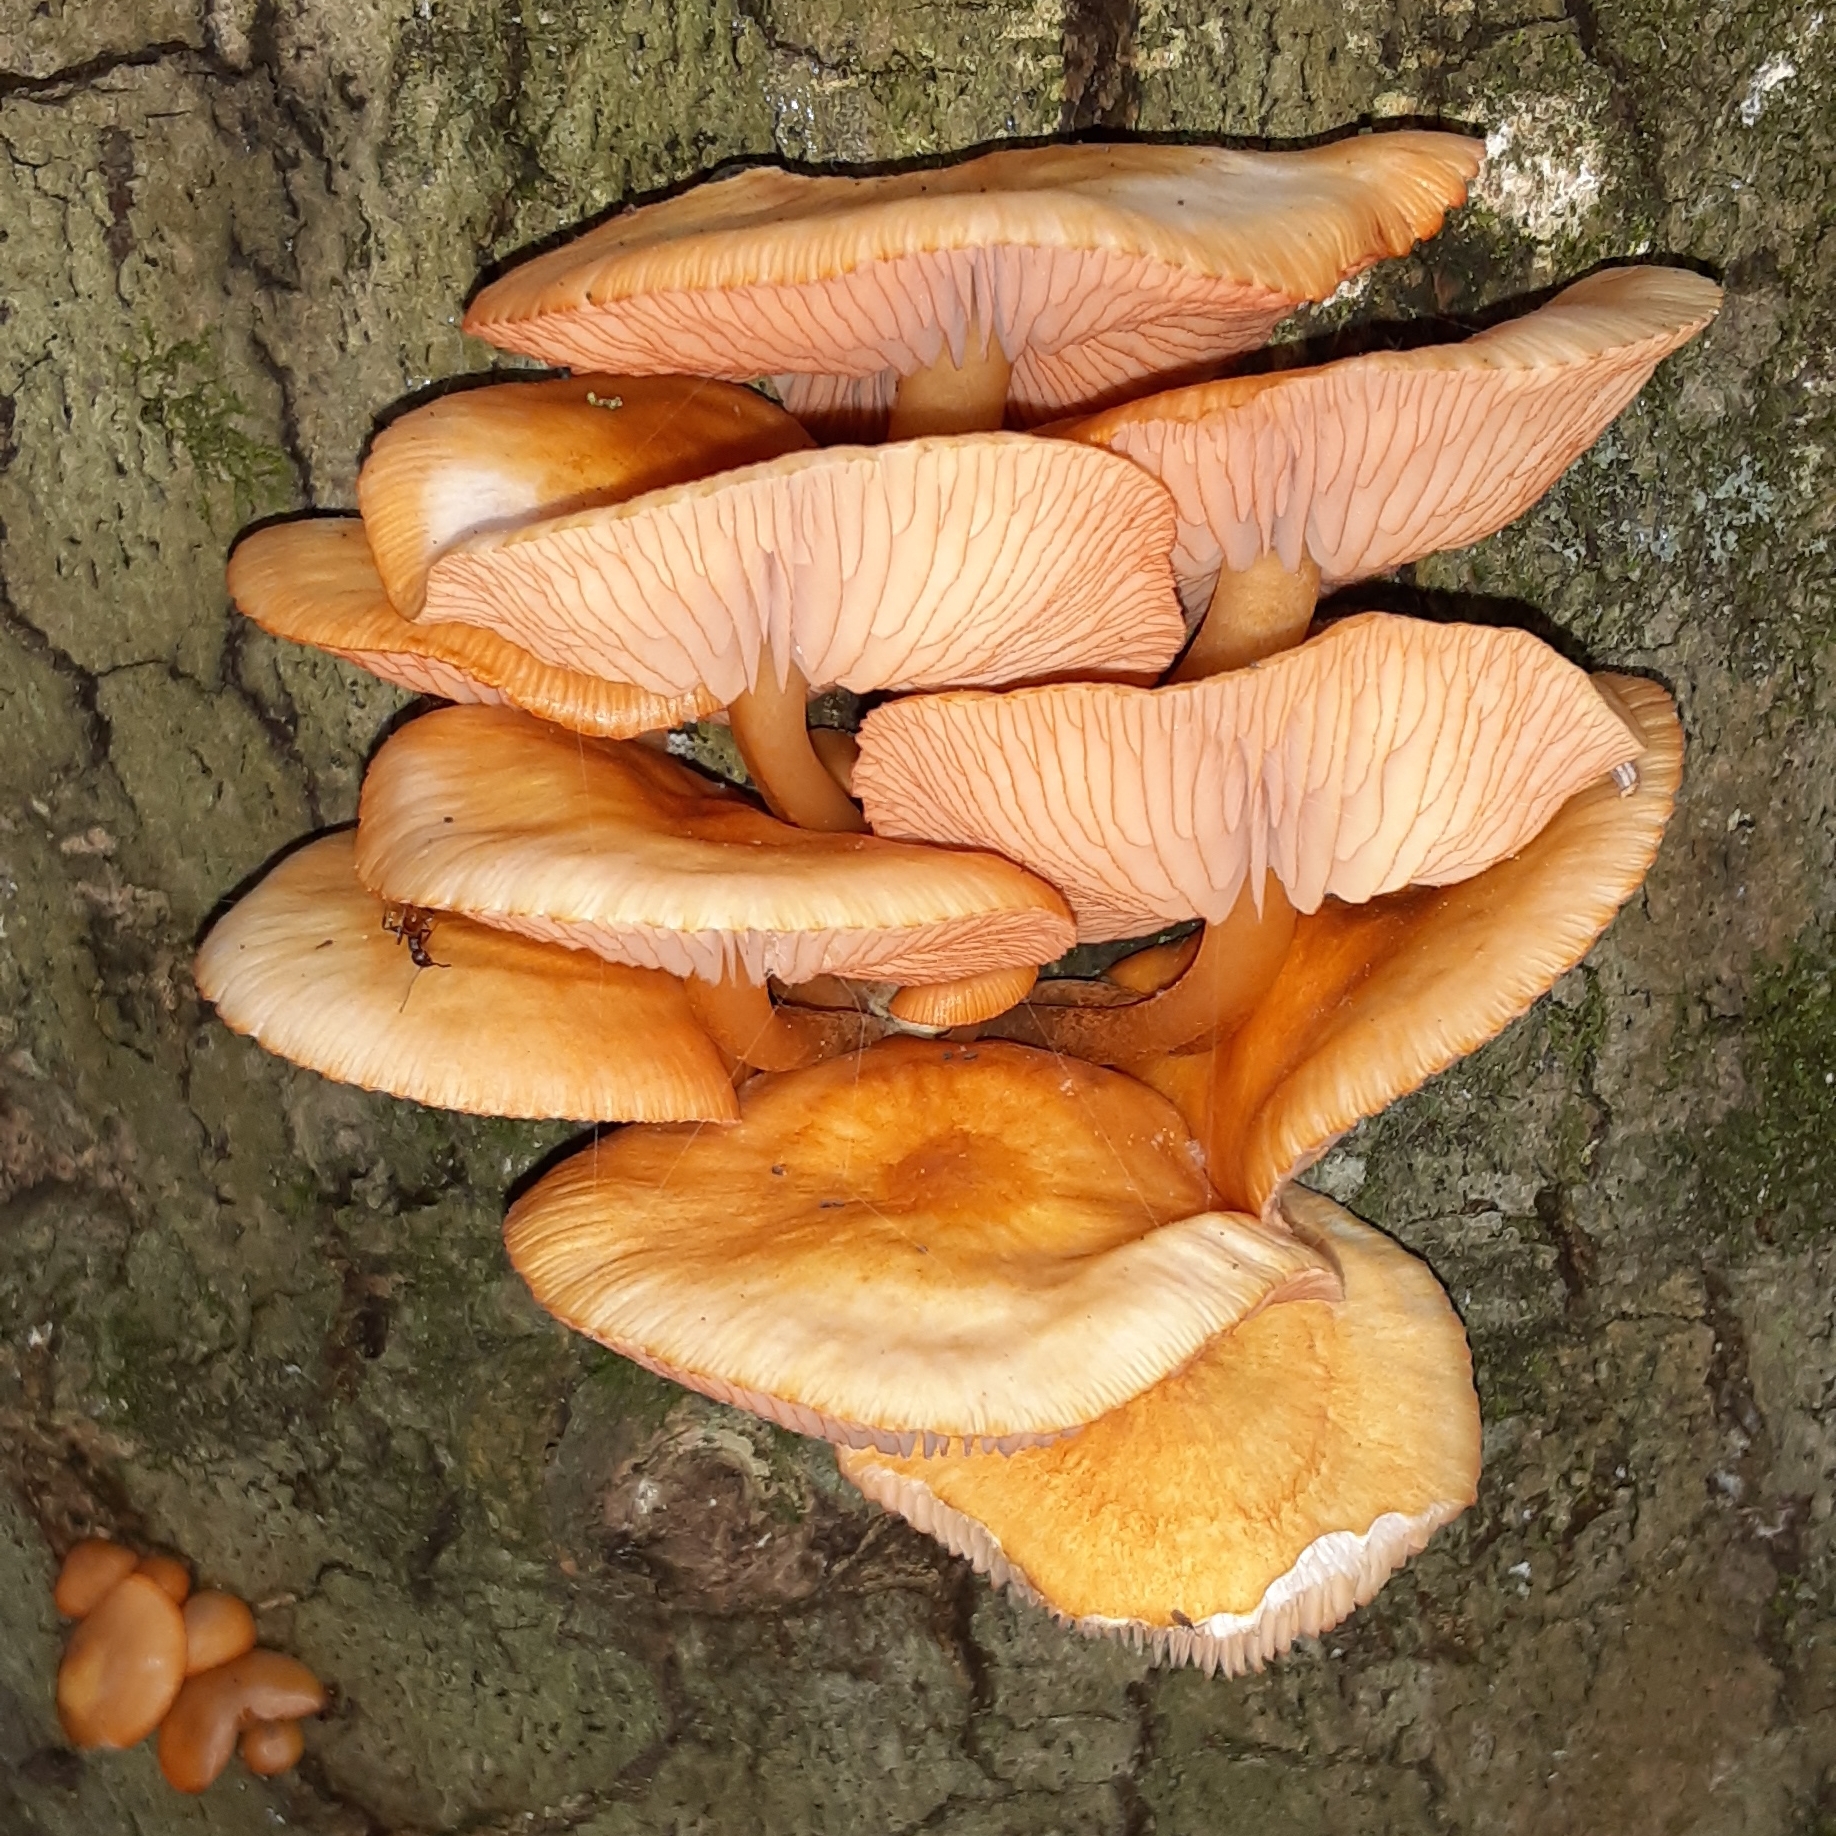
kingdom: Fungi
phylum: Basidiomycota
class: Agaricomycetes
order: Agaricales
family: Mycenaceae
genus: Mycena
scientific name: Mycena leaiana
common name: Orange mycena
